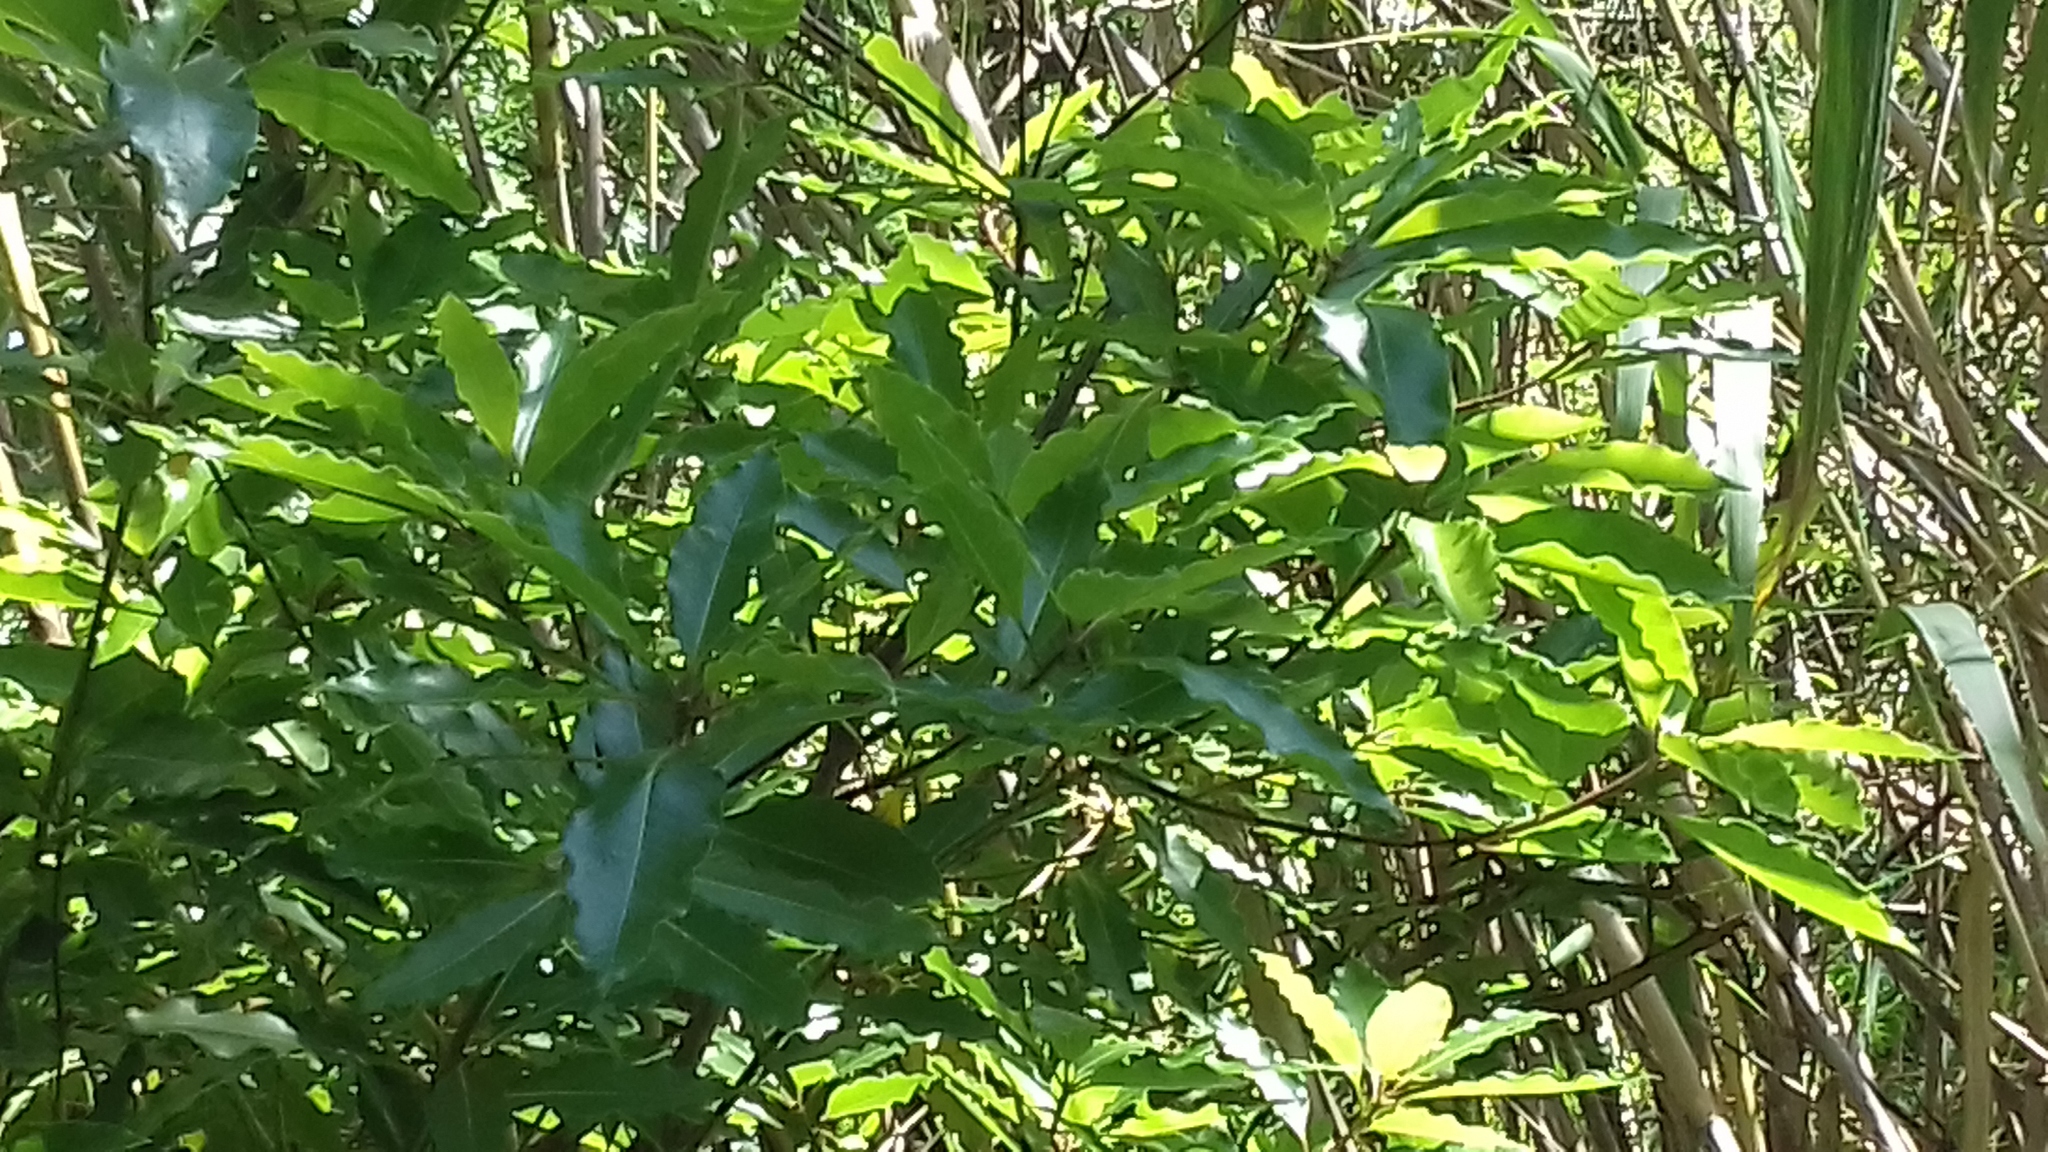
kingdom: Plantae
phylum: Tracheophyta
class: Magnoliopsida
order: Apiales
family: Pittosporaceae
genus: Pittosporum
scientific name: Pittosporum undulatum
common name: Australian cheesewood
